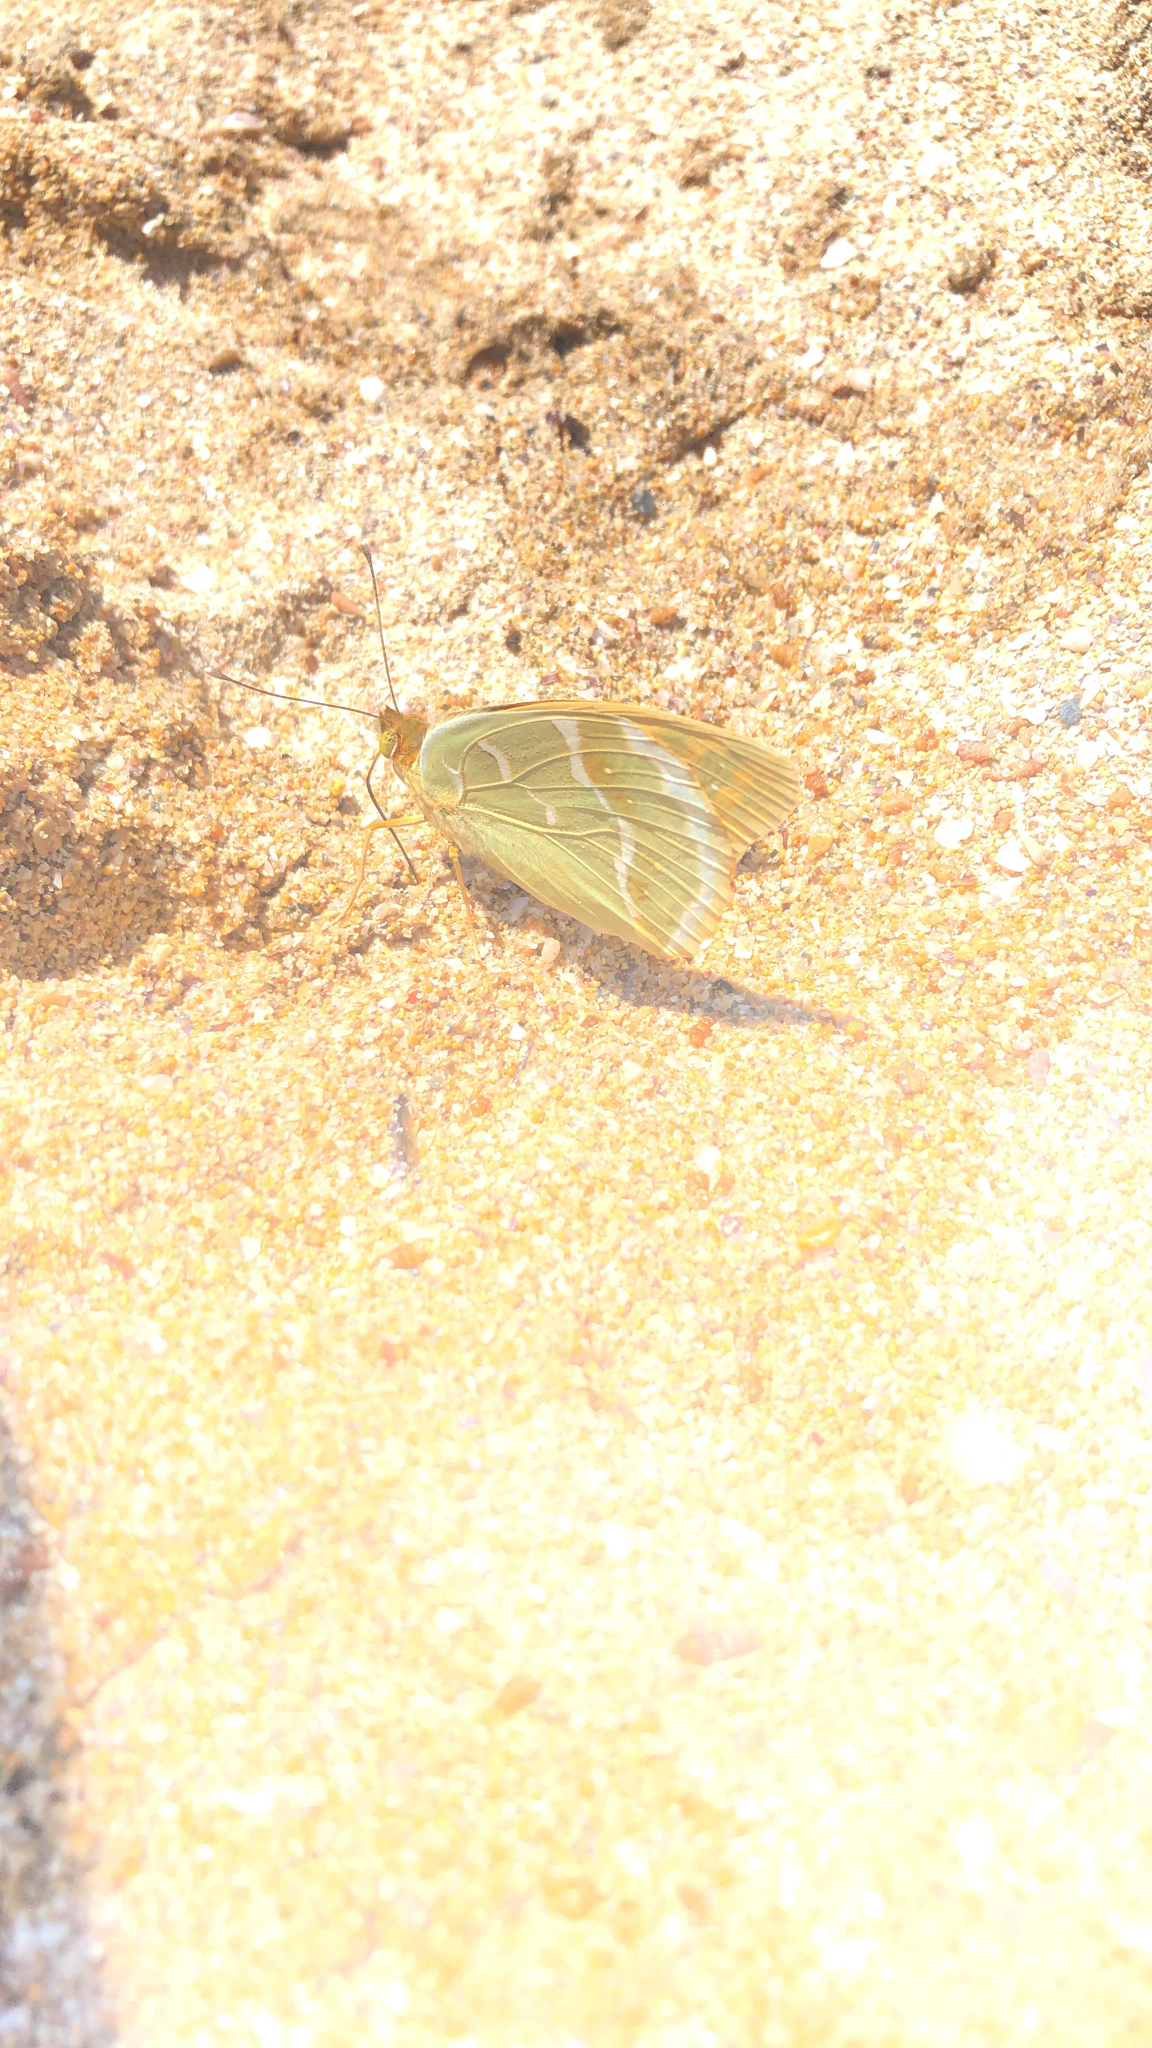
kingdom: Animalia
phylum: Arthropoda
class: Insecta
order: Lepidoptera
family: Nymphalidae
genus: Damora
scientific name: Damora pandora
